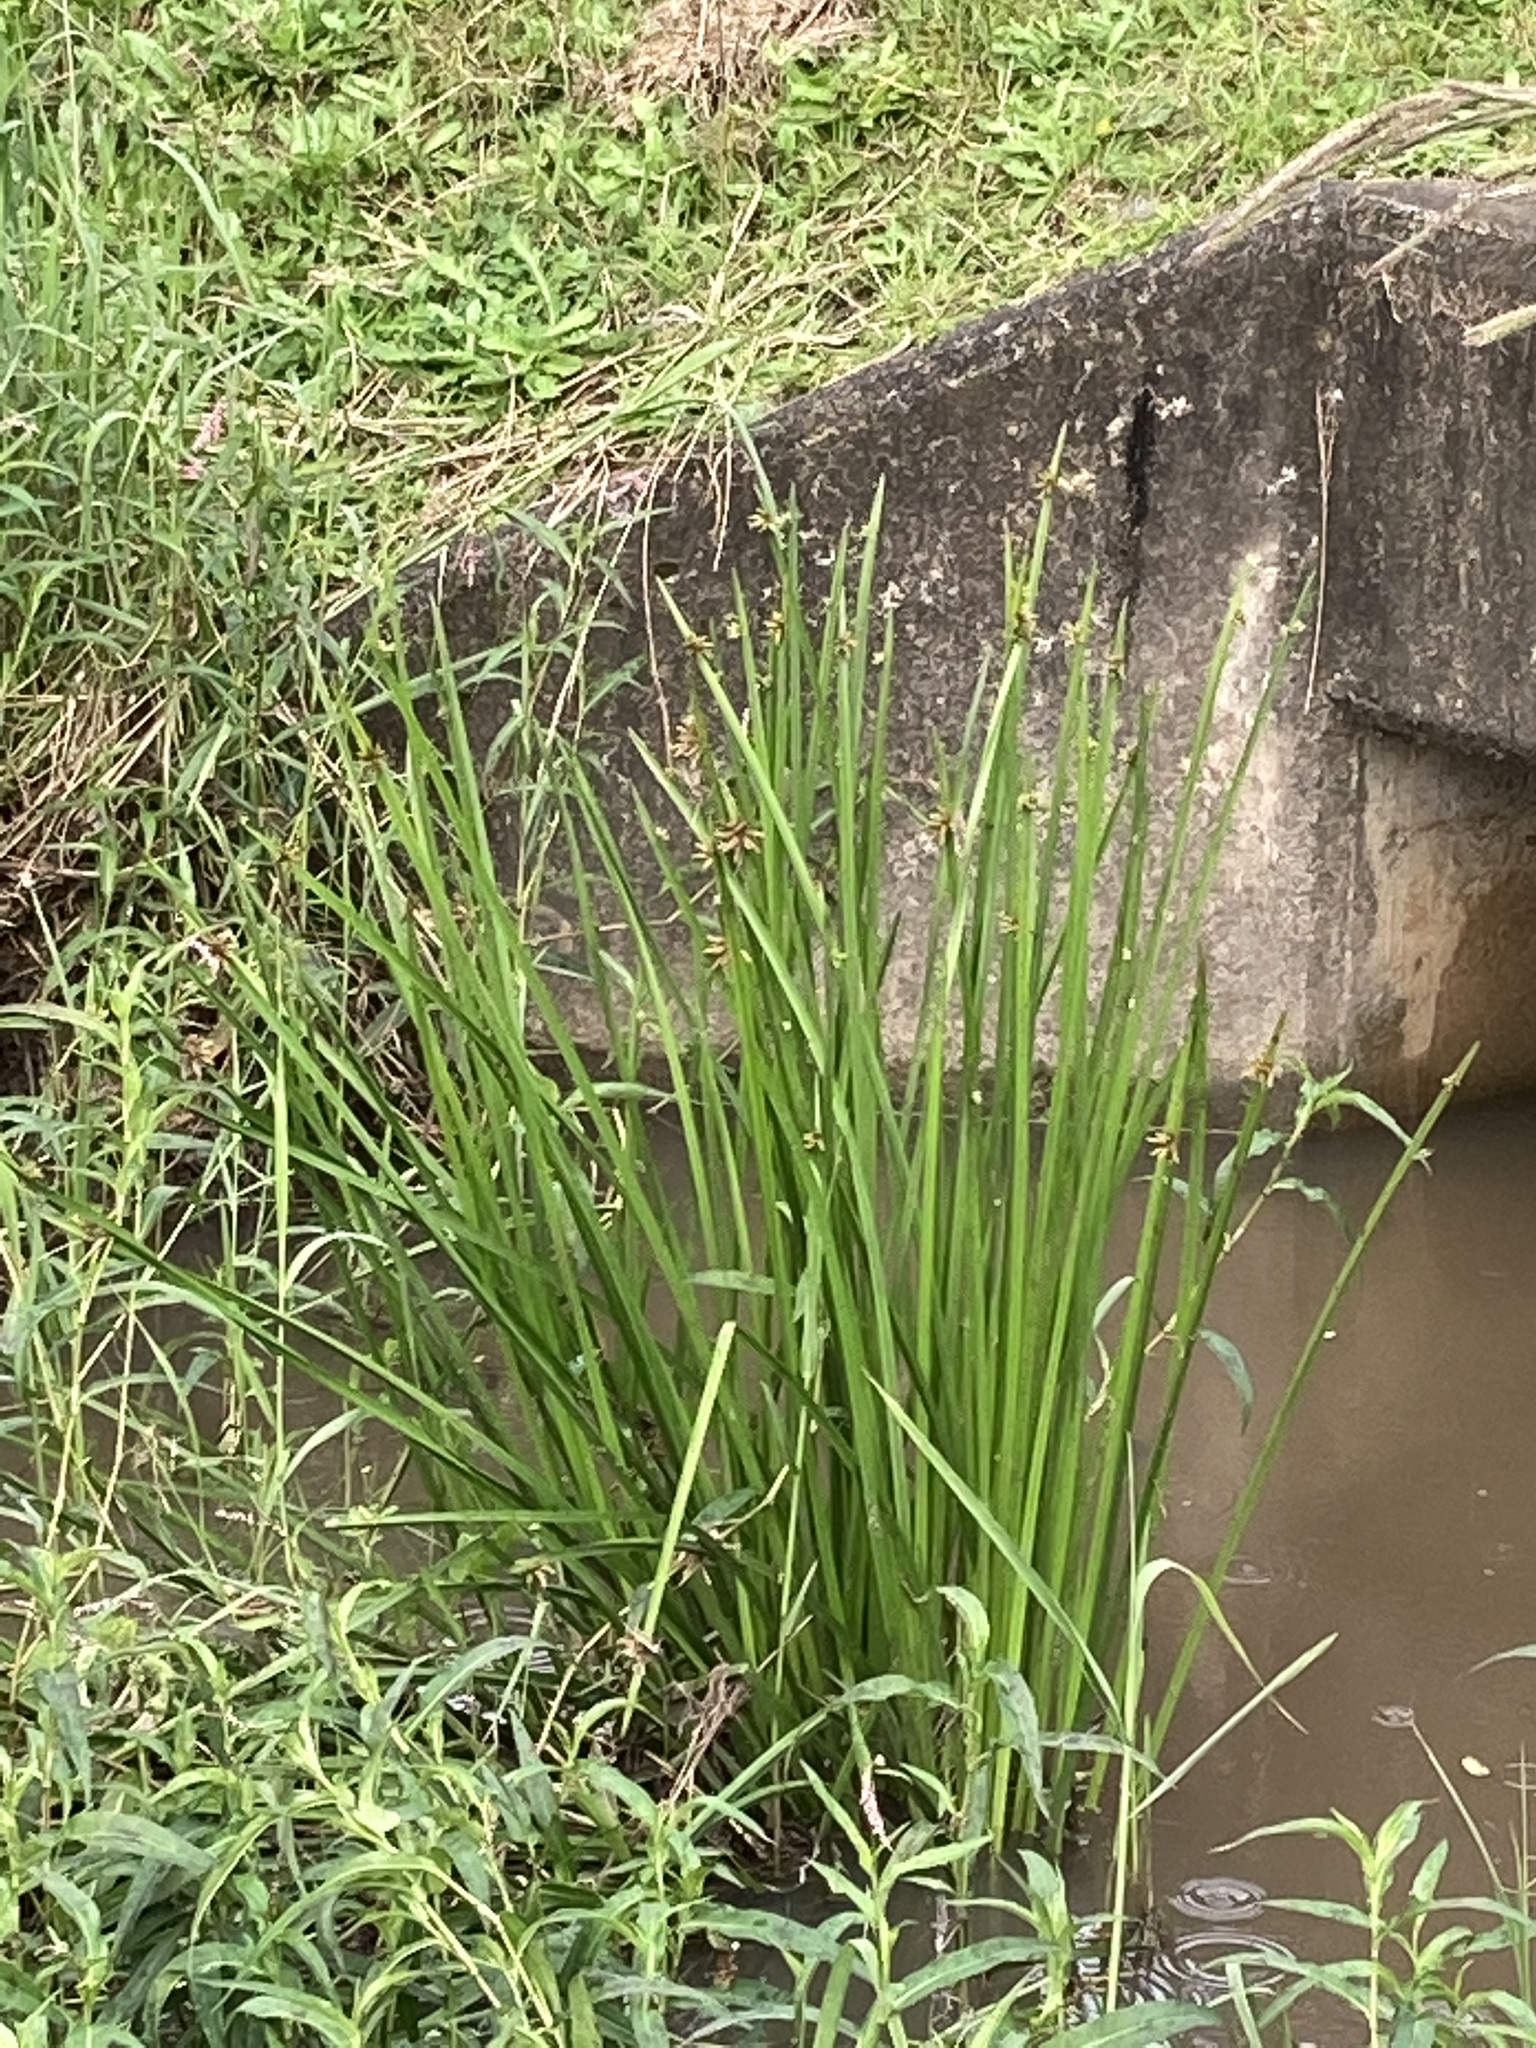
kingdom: Plantae
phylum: Tracheophyta
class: Liliopsida
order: Poales
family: Cyperaceae
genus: Schoenoplectiella
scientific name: Schoenoplectiella mucronata
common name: Bog bulrush
